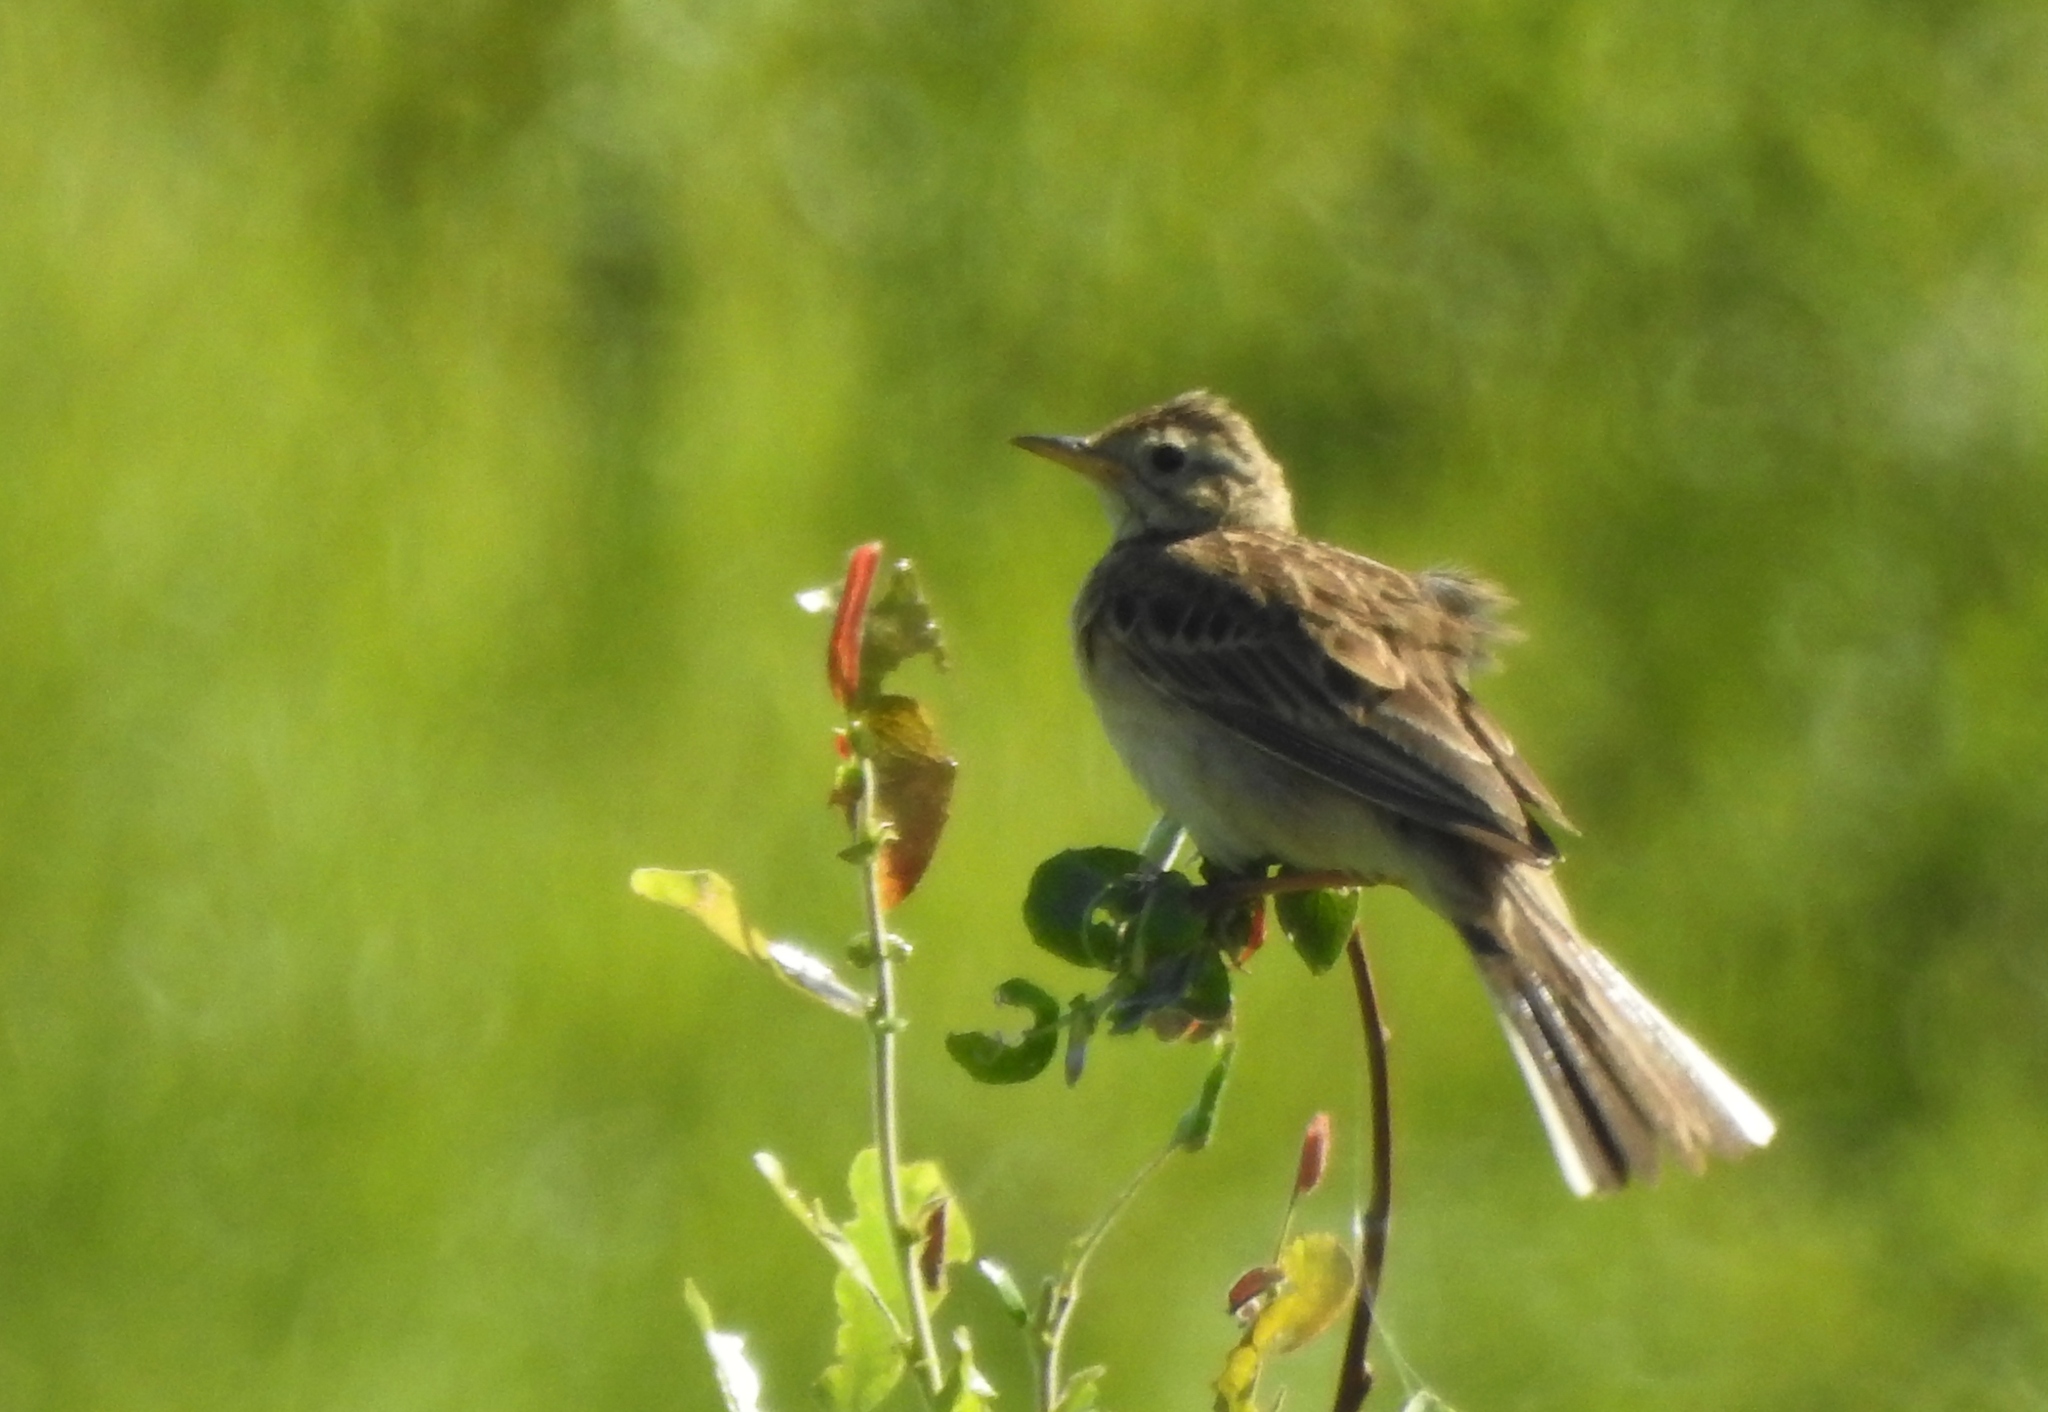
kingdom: Animalia
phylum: Chordata
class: Aves
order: Passeriformes
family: Motacillidae
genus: Anthus
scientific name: Anthus richardi
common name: Richard's pipit
